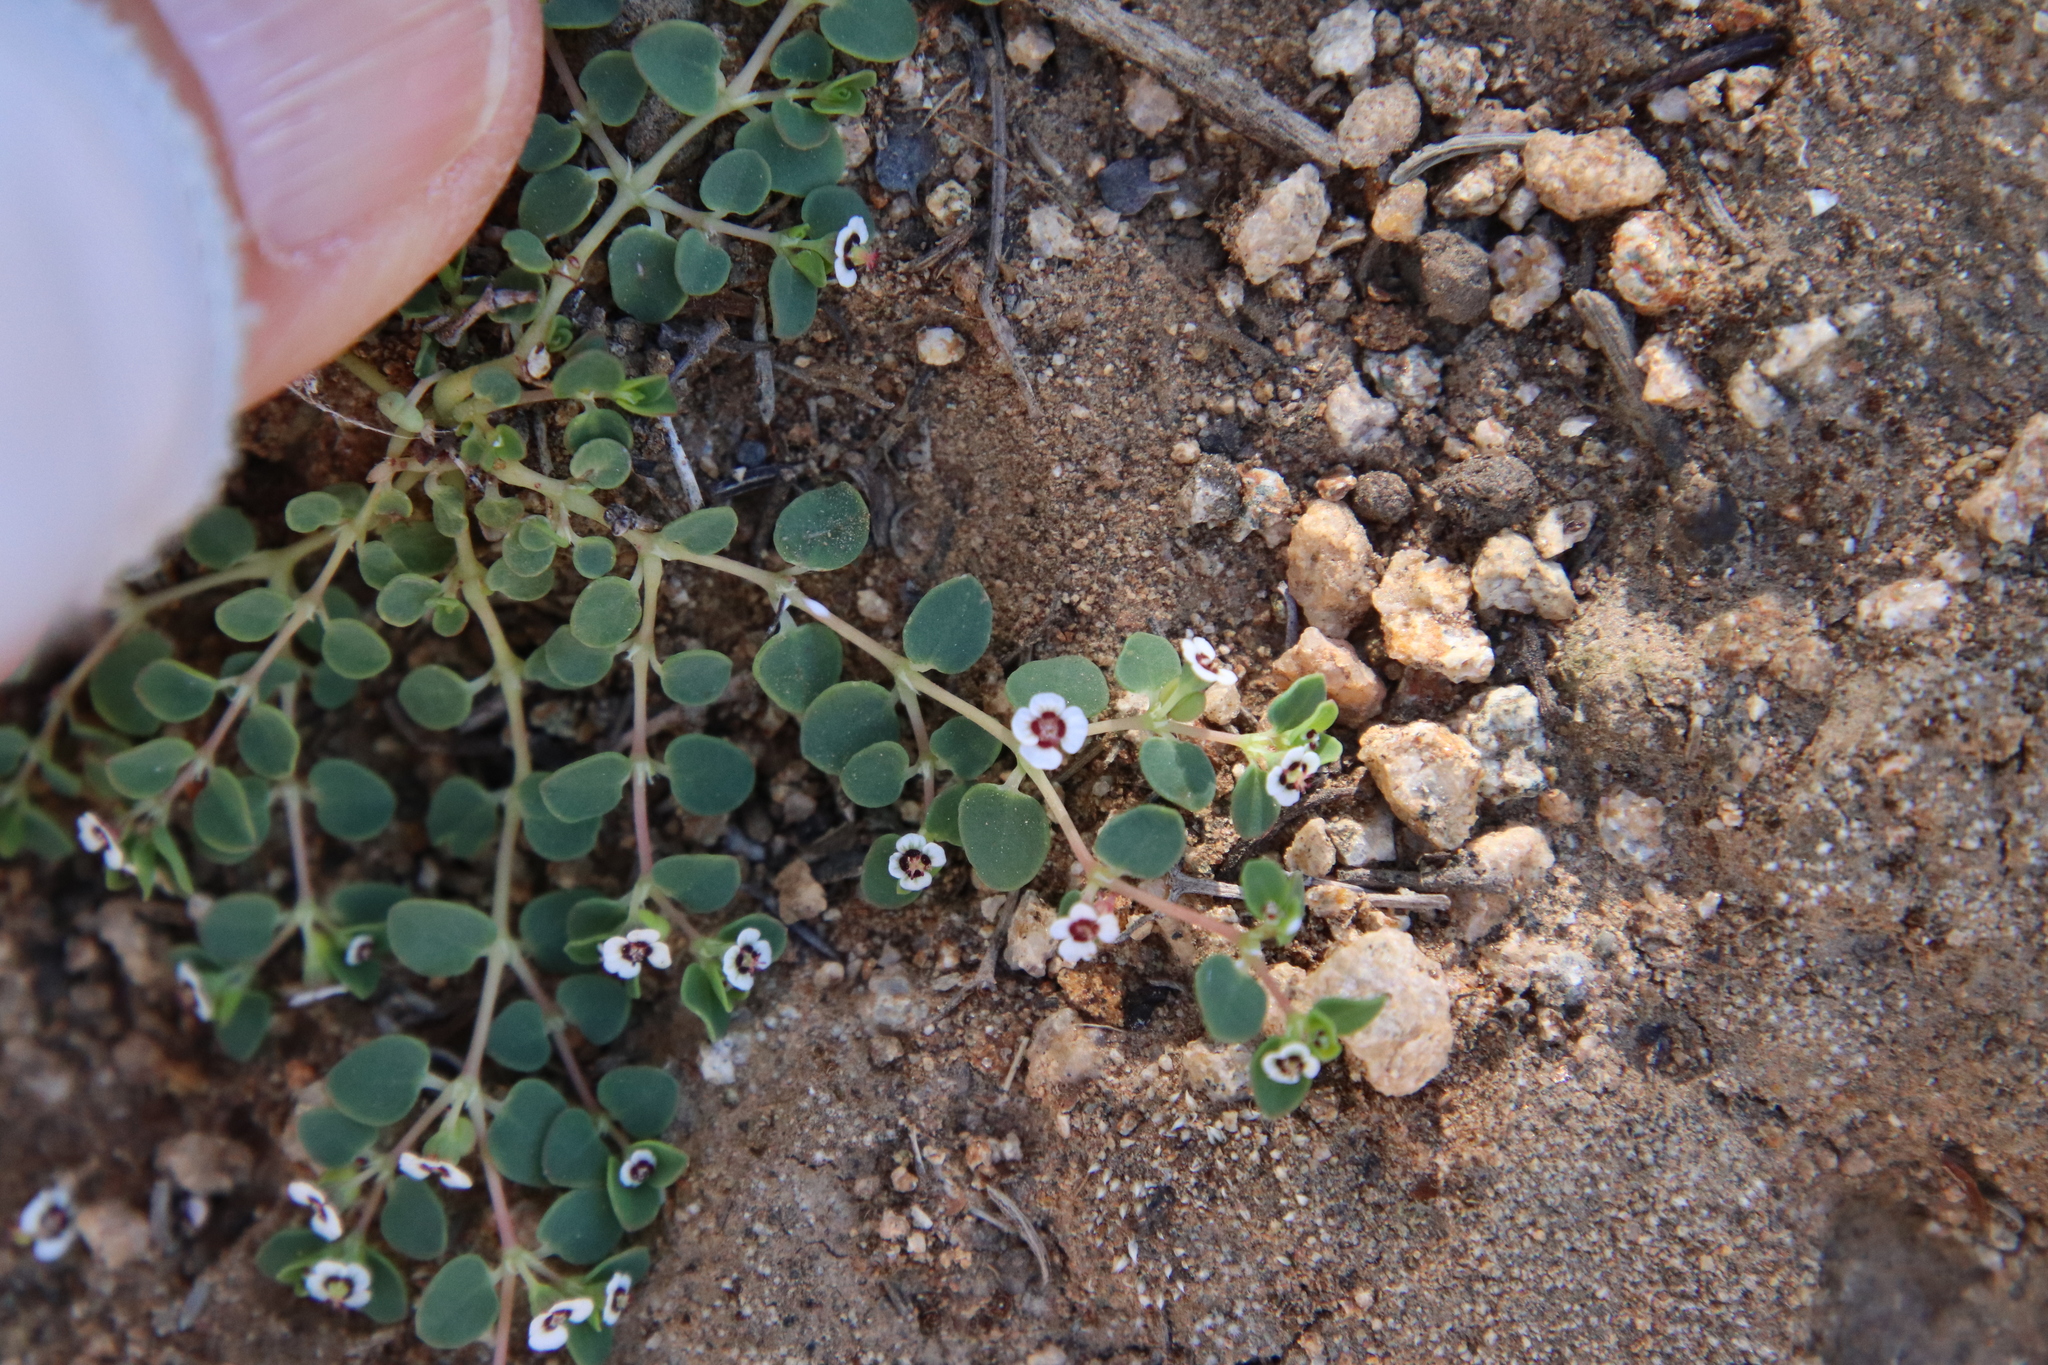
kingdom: Plantae
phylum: Tracheophyta
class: Magnoliopsida
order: Malpighiales
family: Euphorbiaceae
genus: Euphorbia
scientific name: Euphorbia polycarpa
